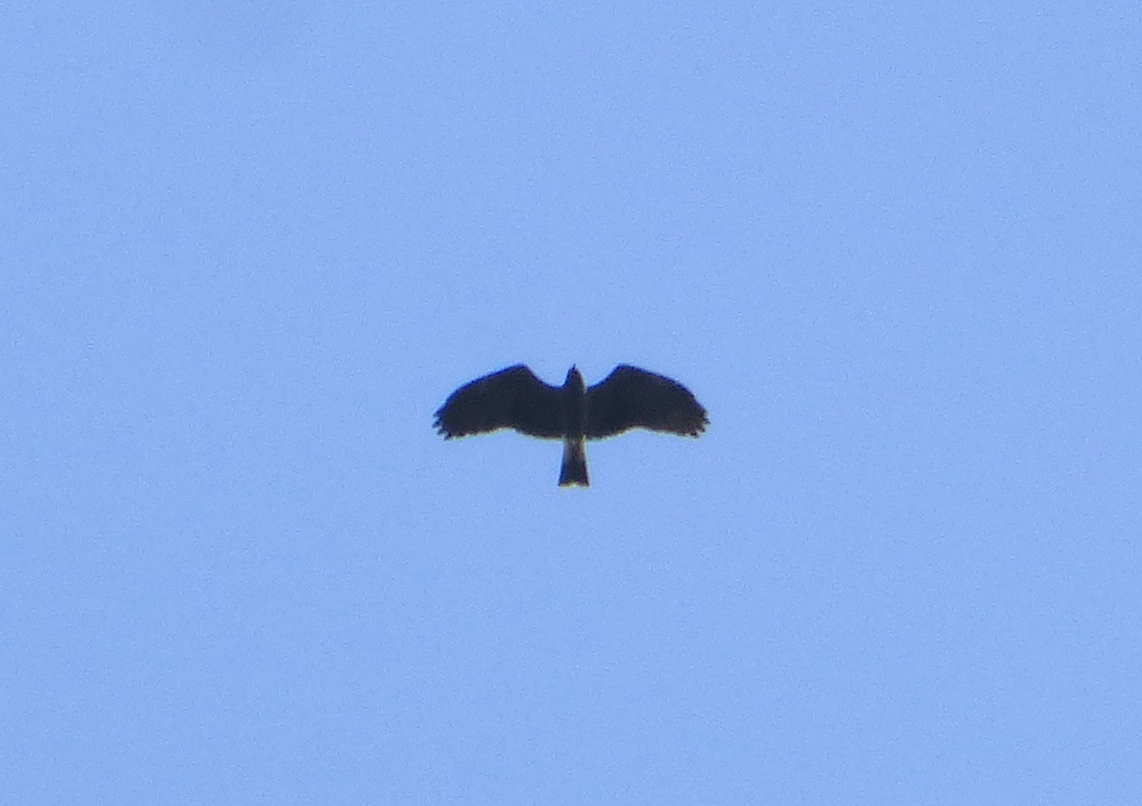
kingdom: Animalia
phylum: Chordata
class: Aves
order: Accipitriformes
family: Accipitridae
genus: Rostrhamus
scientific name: Rostrhamus sociabilis
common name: Snail kite
